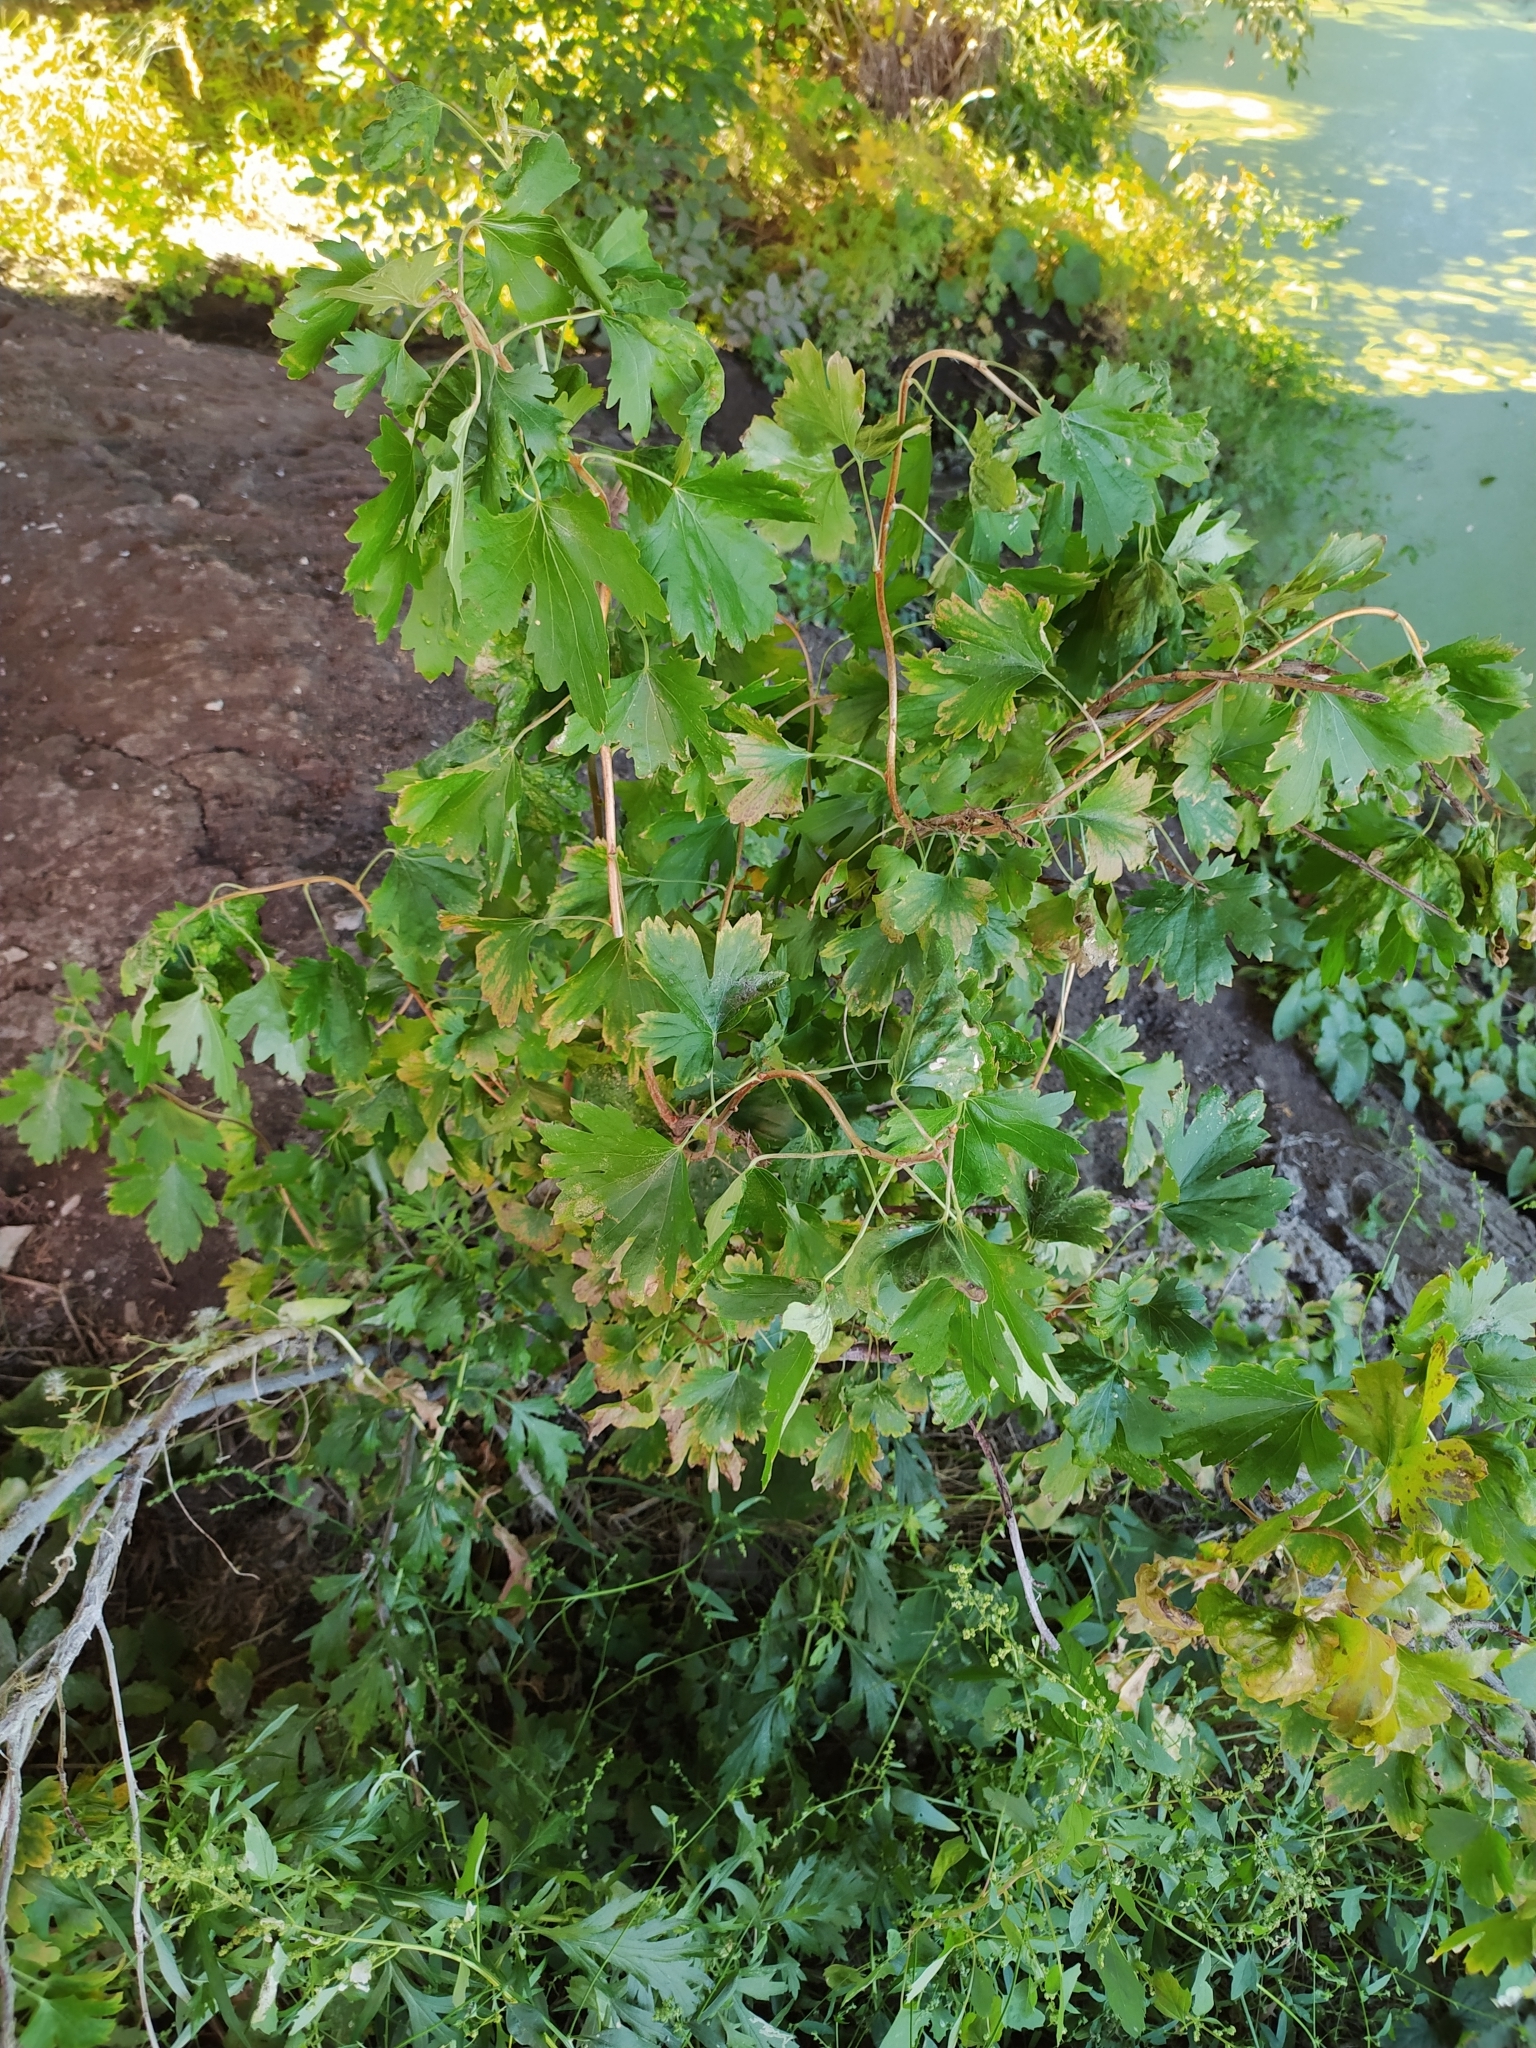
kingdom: Plantae
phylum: Tracheophyta
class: Magnoliopsida
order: Saxifragales
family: Grossulariaceae
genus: Ribes
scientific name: Ribes aureum
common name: Golden currant
